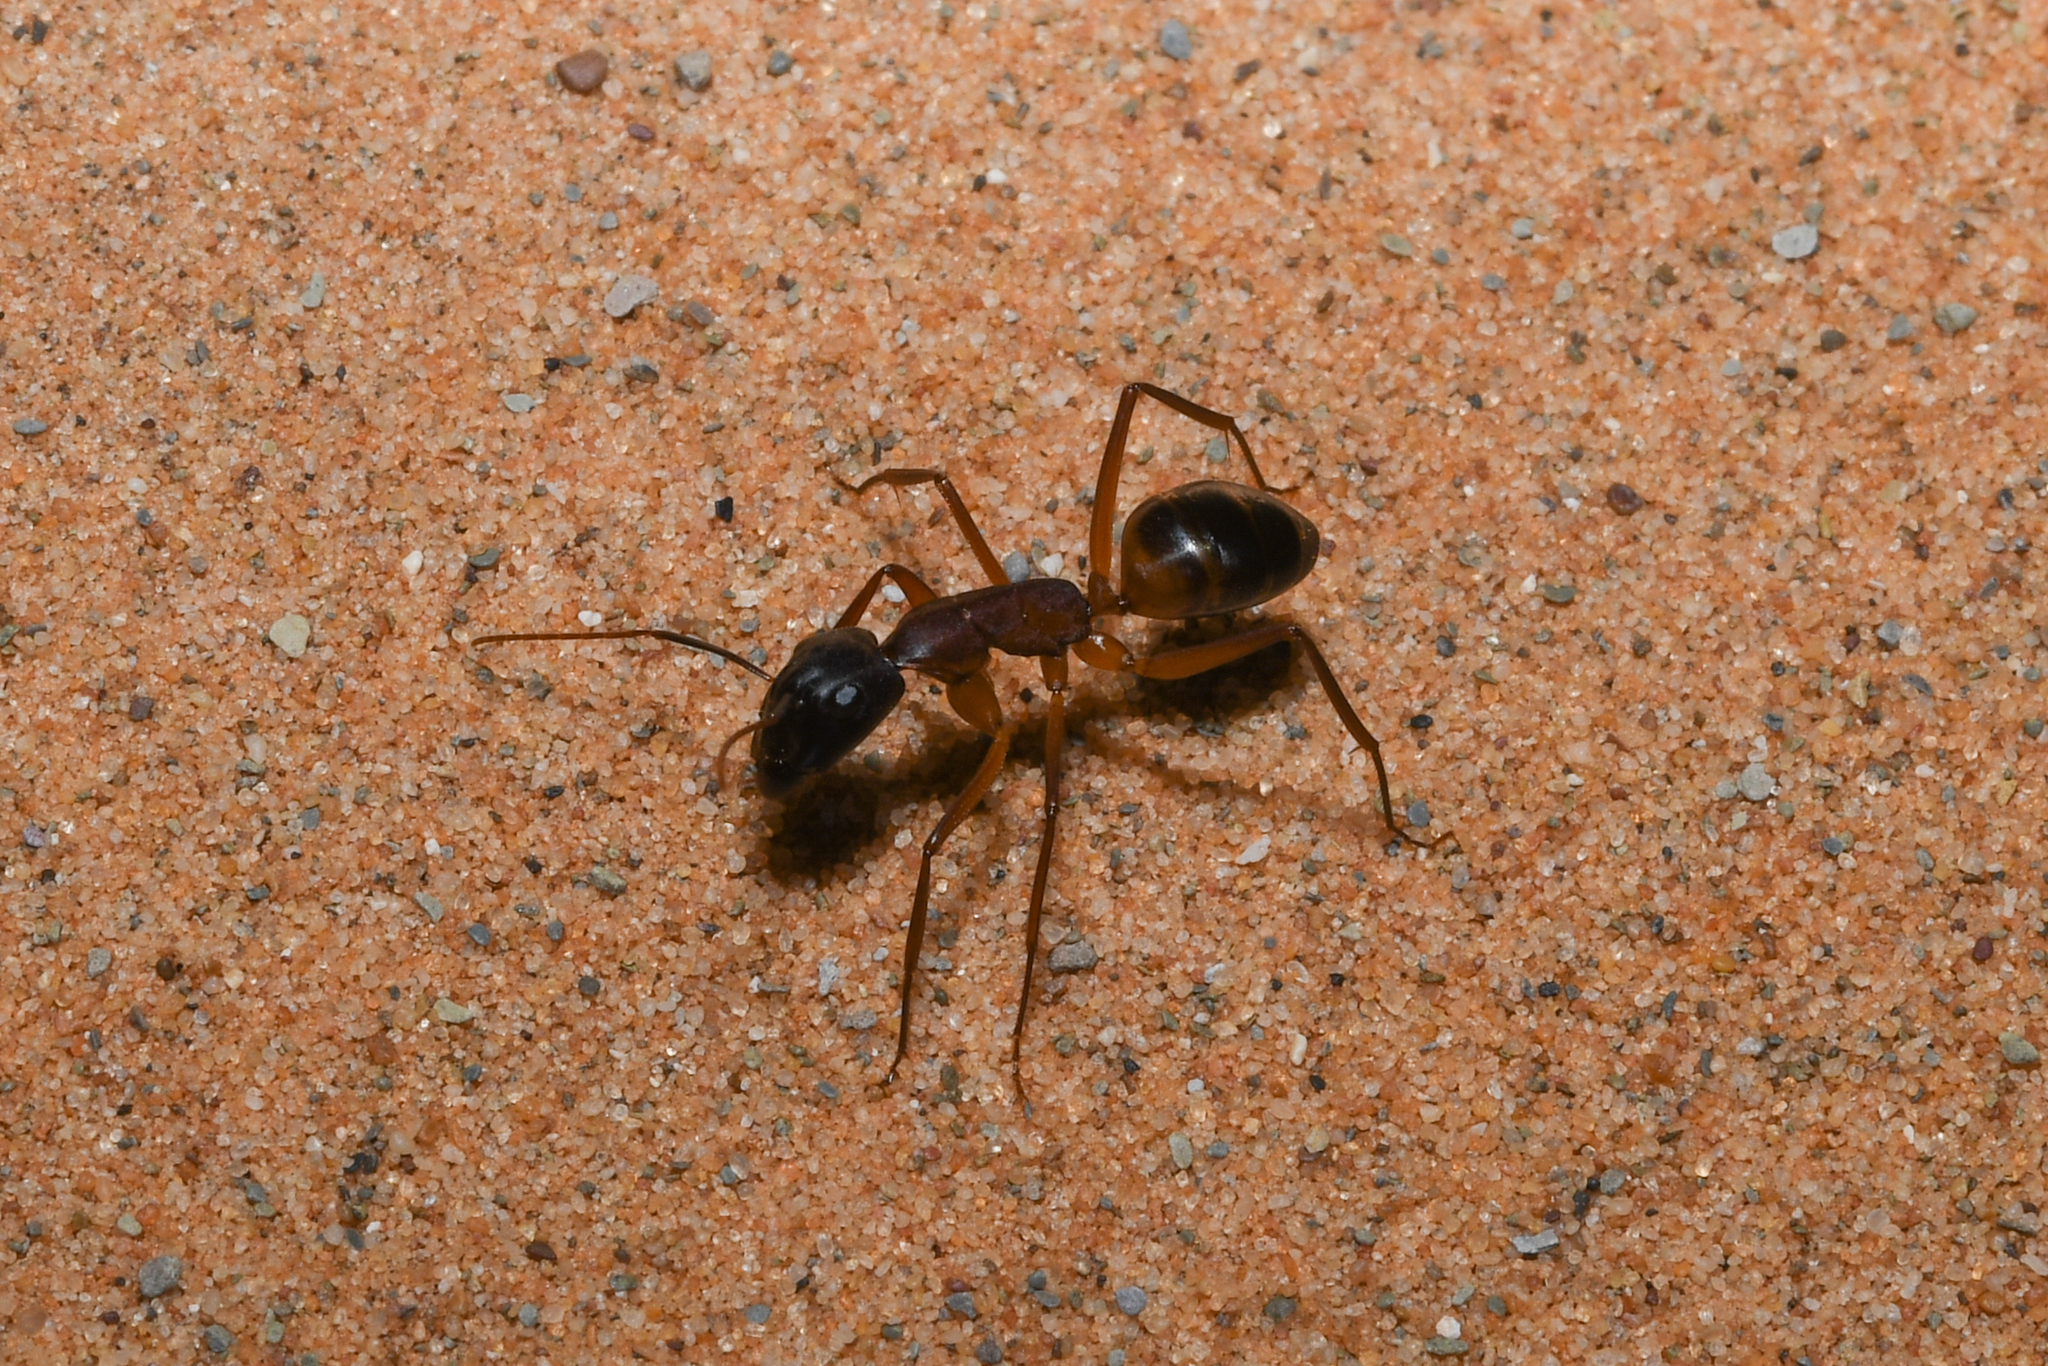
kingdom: Animalia
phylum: Arthropoda
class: Insecta
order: Hymenoptera
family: Formicidae
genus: Camponotus
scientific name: Camponotus thoracicus
